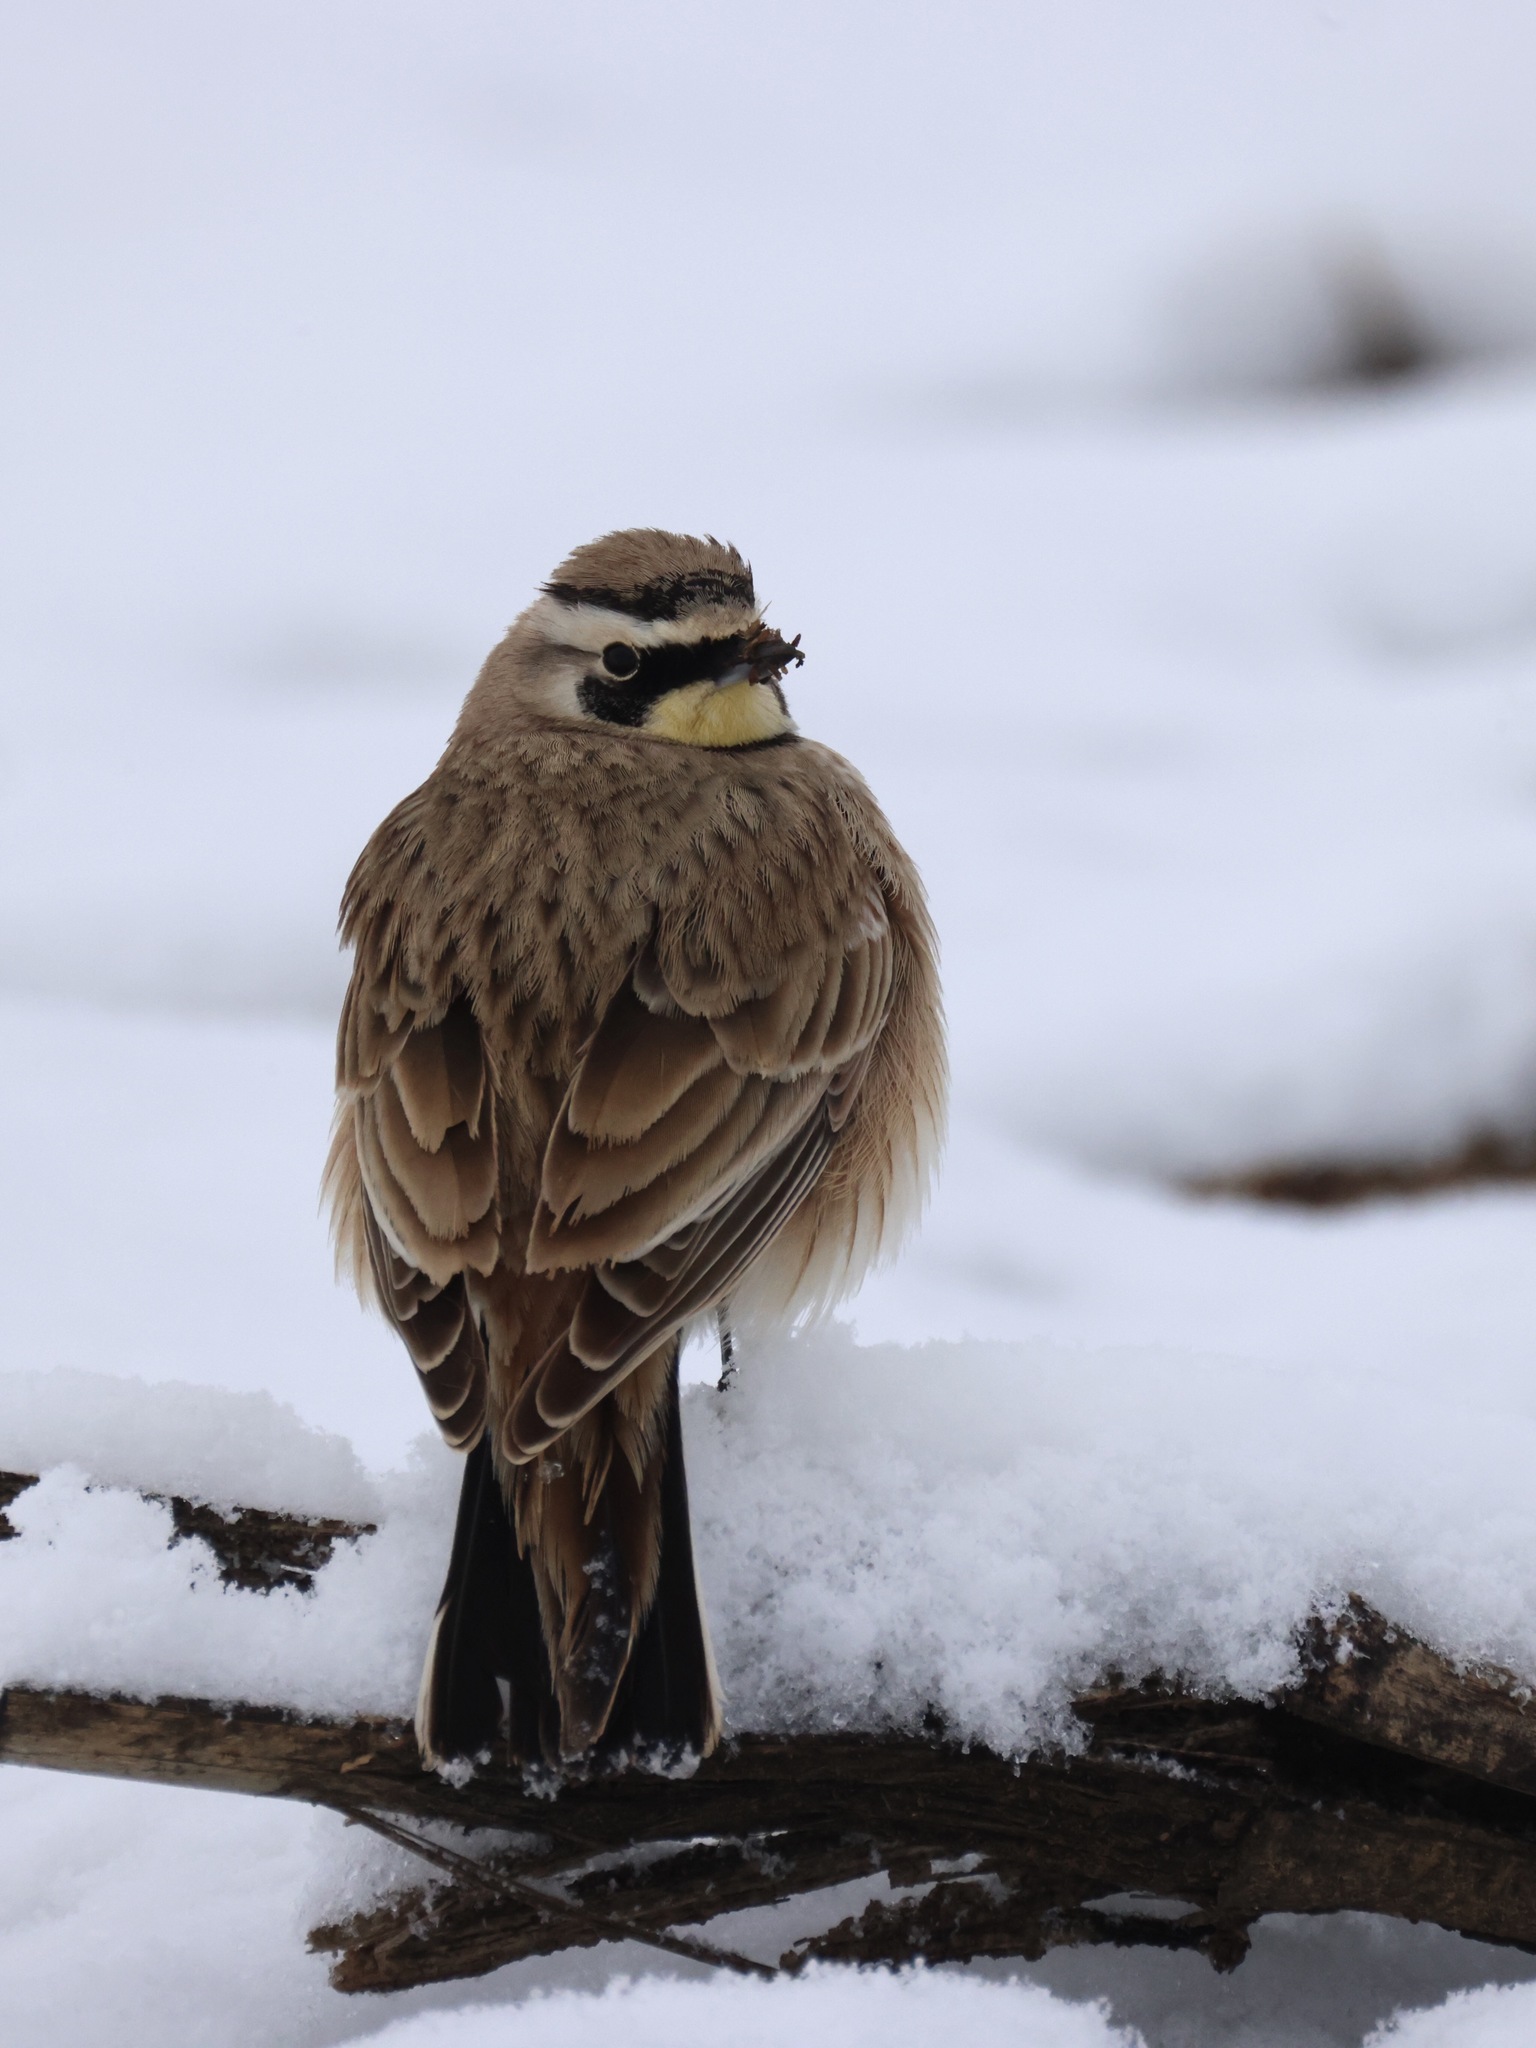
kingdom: Animalia
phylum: Chordata
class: Aves
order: Passeriformes
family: Alaudidae
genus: Eremophila
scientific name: Eremophila alpestris
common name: Horned lark
